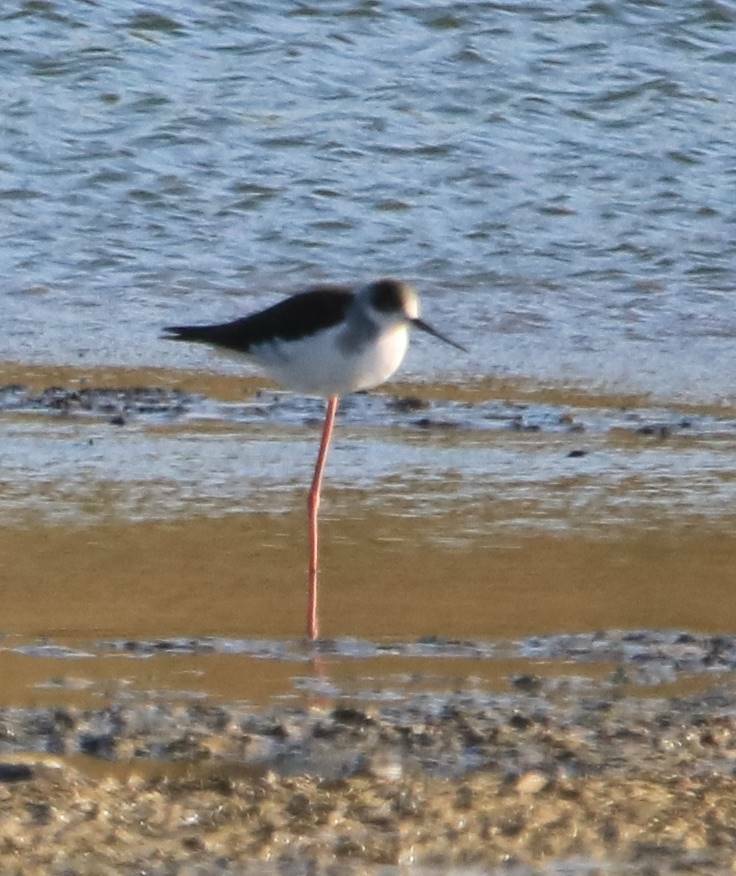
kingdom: Animalia
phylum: Chordata
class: Aves
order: Charadriiformes
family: Recurvirostridae
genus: Himantopus
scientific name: Himantopus himantopus
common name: Black-winged stilt
